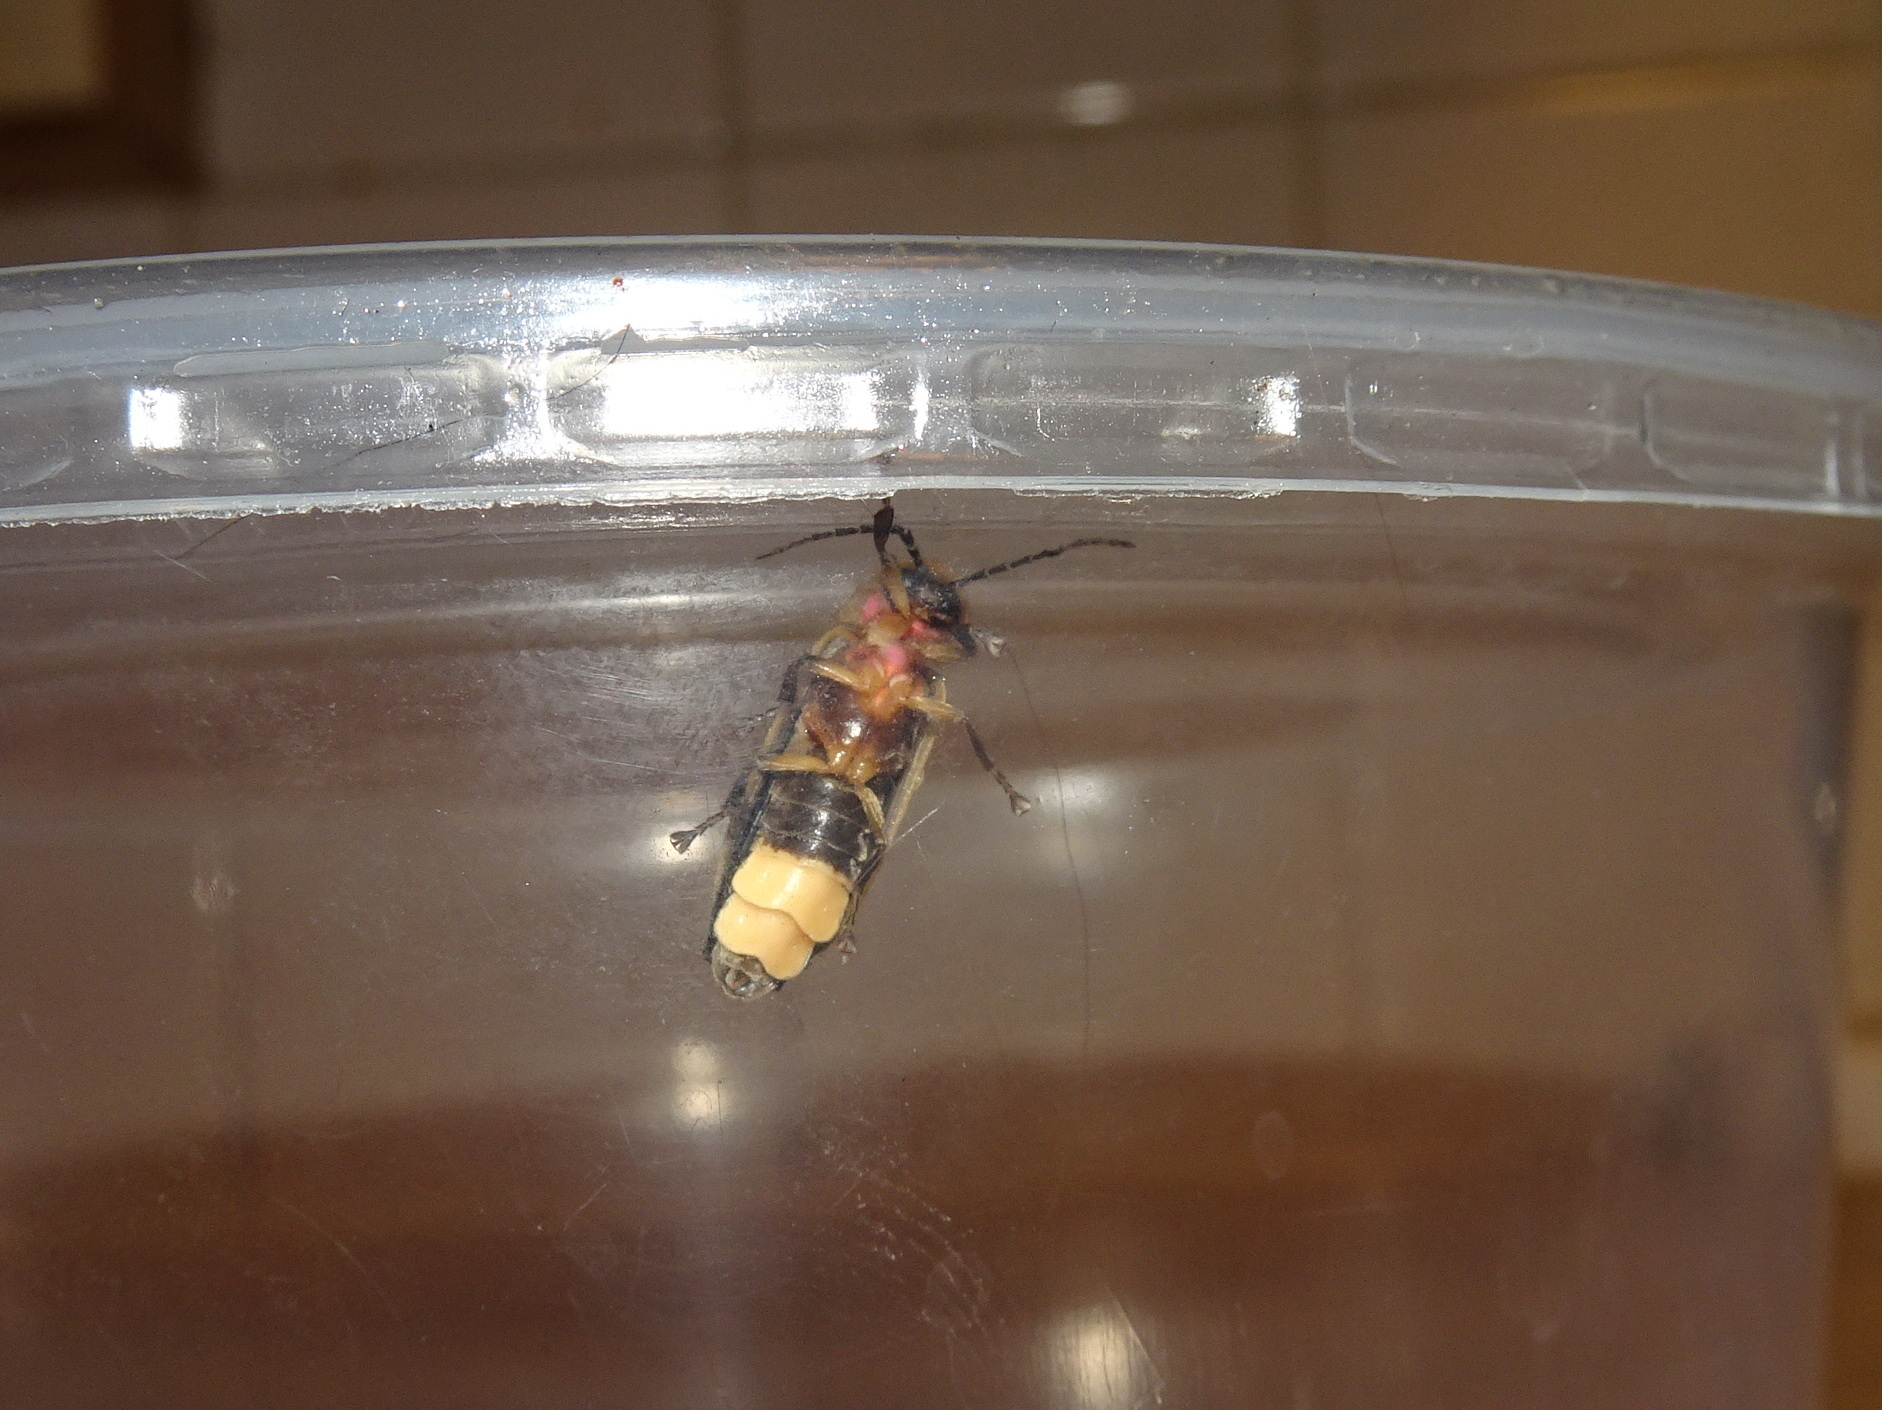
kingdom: Animalia
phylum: Arthropoda
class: Insecta
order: Coleoptera
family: Lampyridae
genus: Photinus
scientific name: Photinus pyralis
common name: Big dipper firefly
